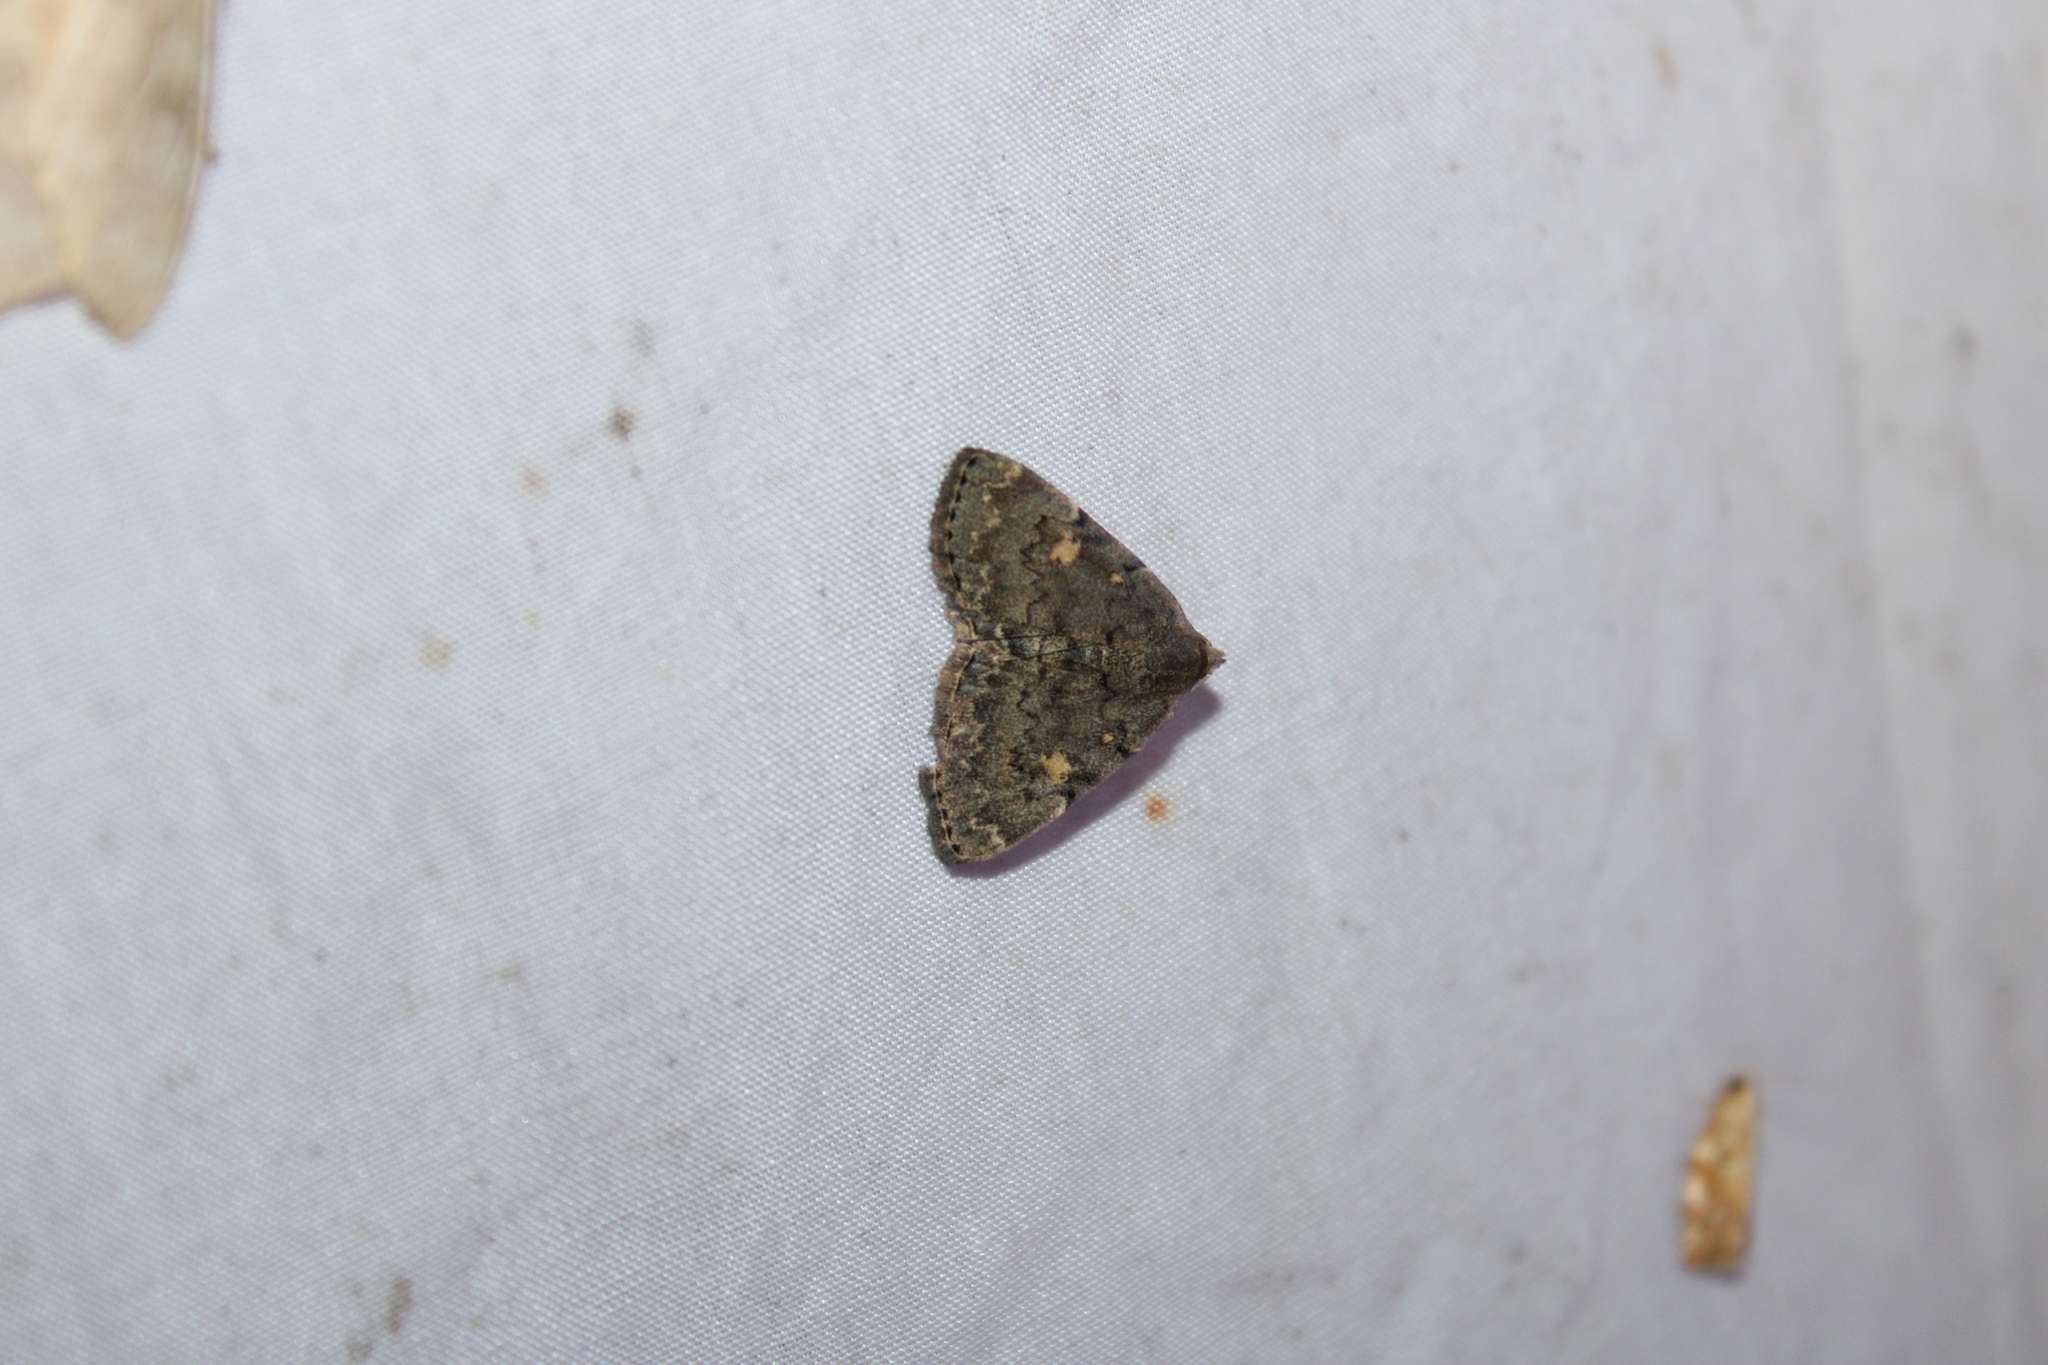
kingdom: Animalia
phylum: Arthropoda
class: Insecta
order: Lepidoptera
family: Erebidae
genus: Idia
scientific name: Idia aemula
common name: Common idia moth
